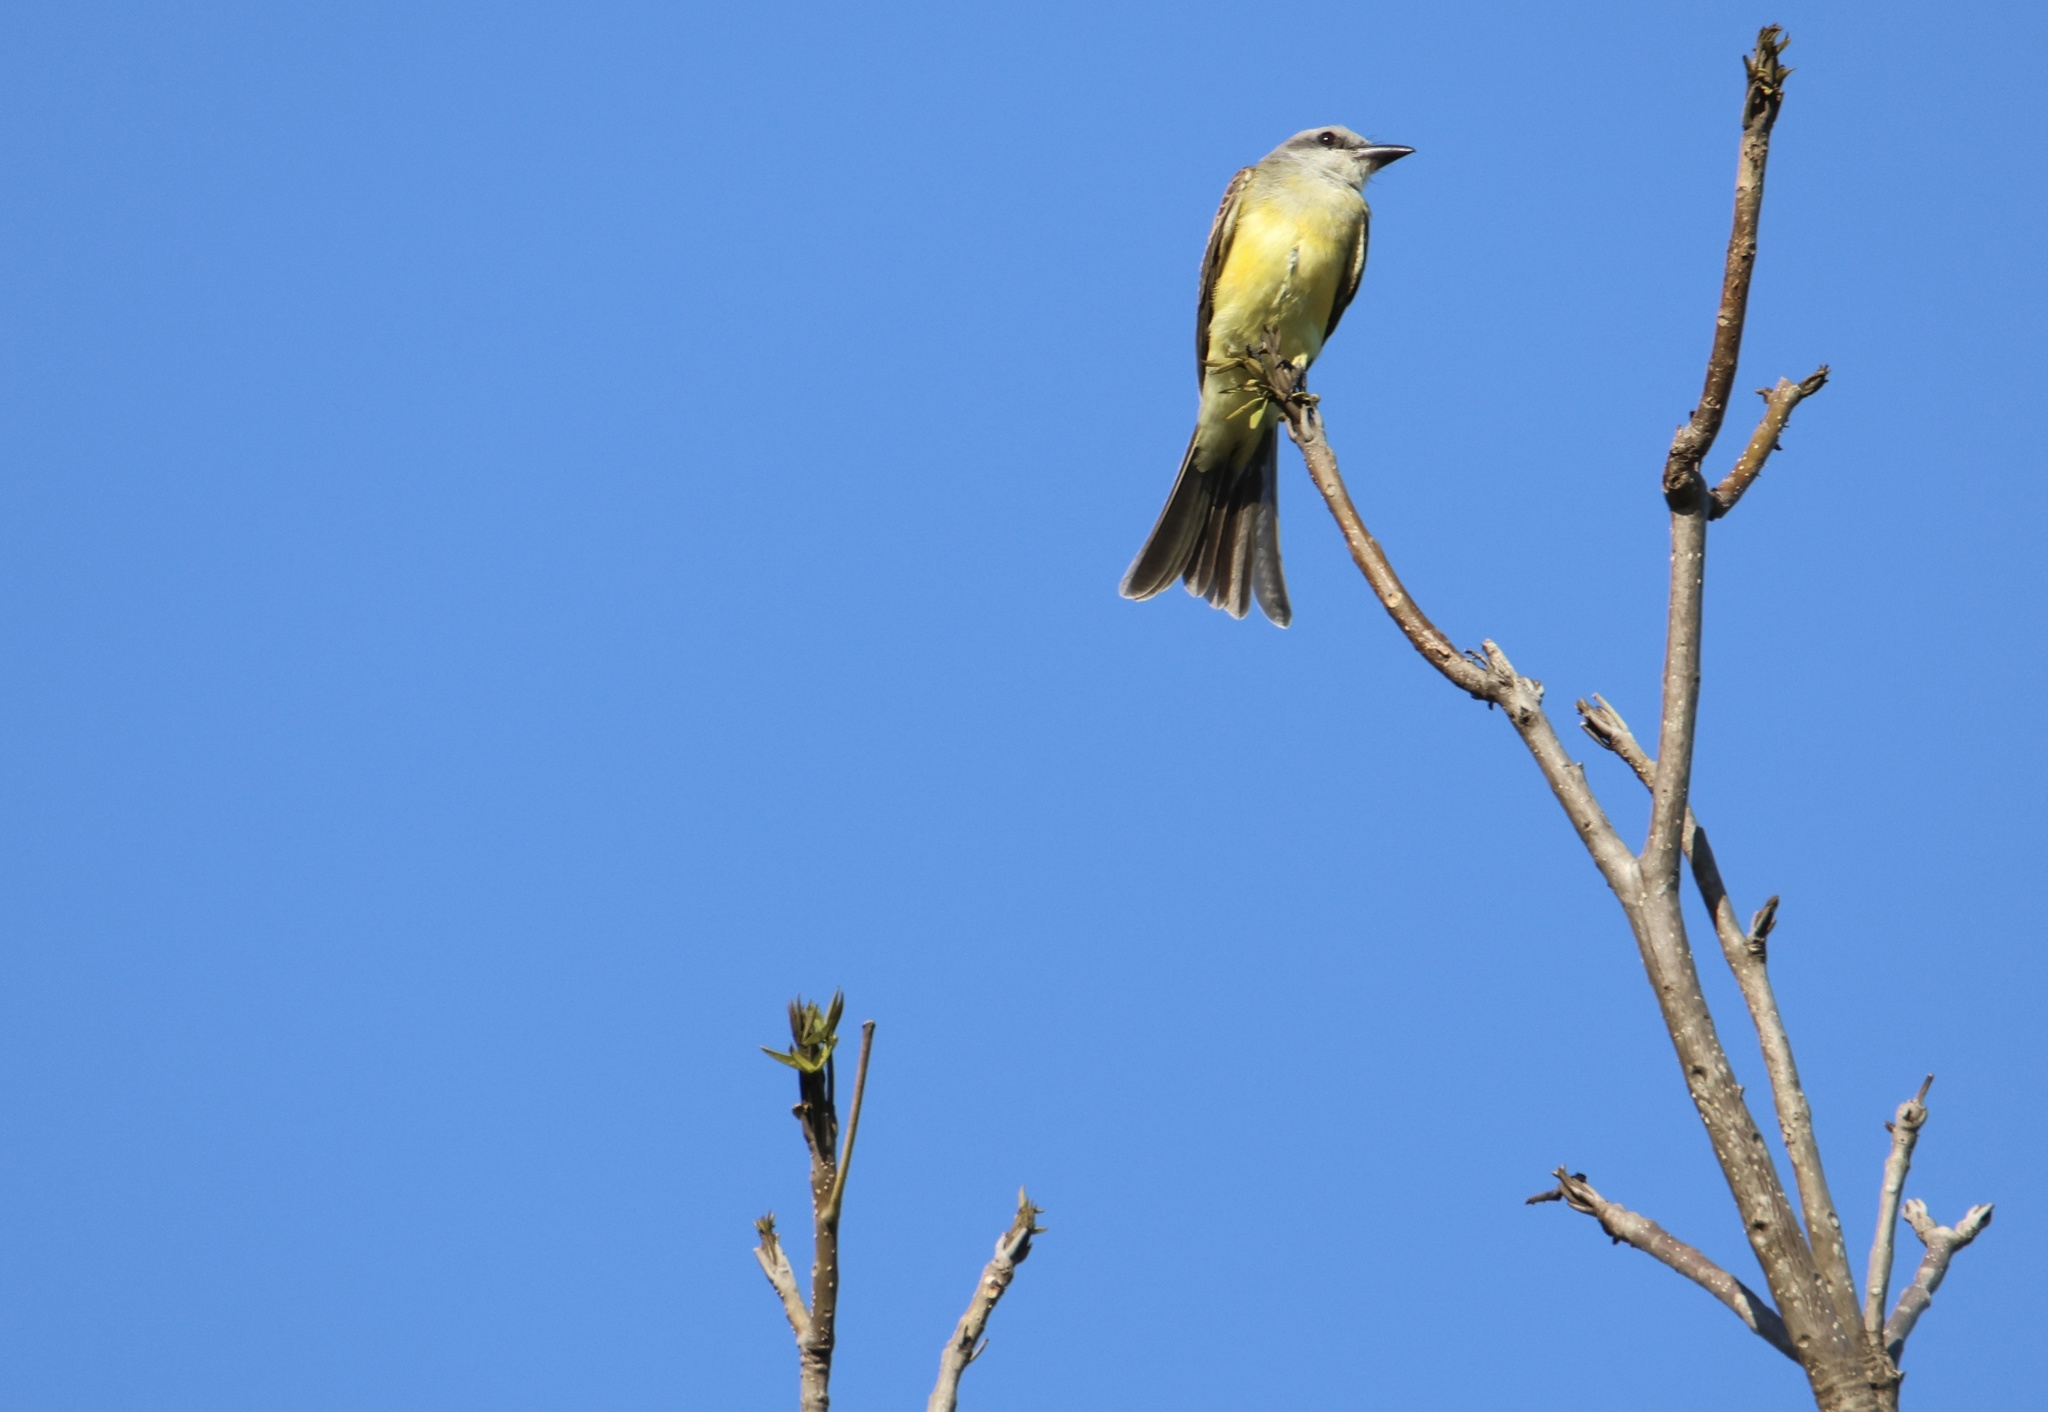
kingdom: Animalia
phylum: Chordata
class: Aves
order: Passeriformes
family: Tyrannidae
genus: Tyrannus
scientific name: Tyrannus melancholicus
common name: Tropical kingbird
